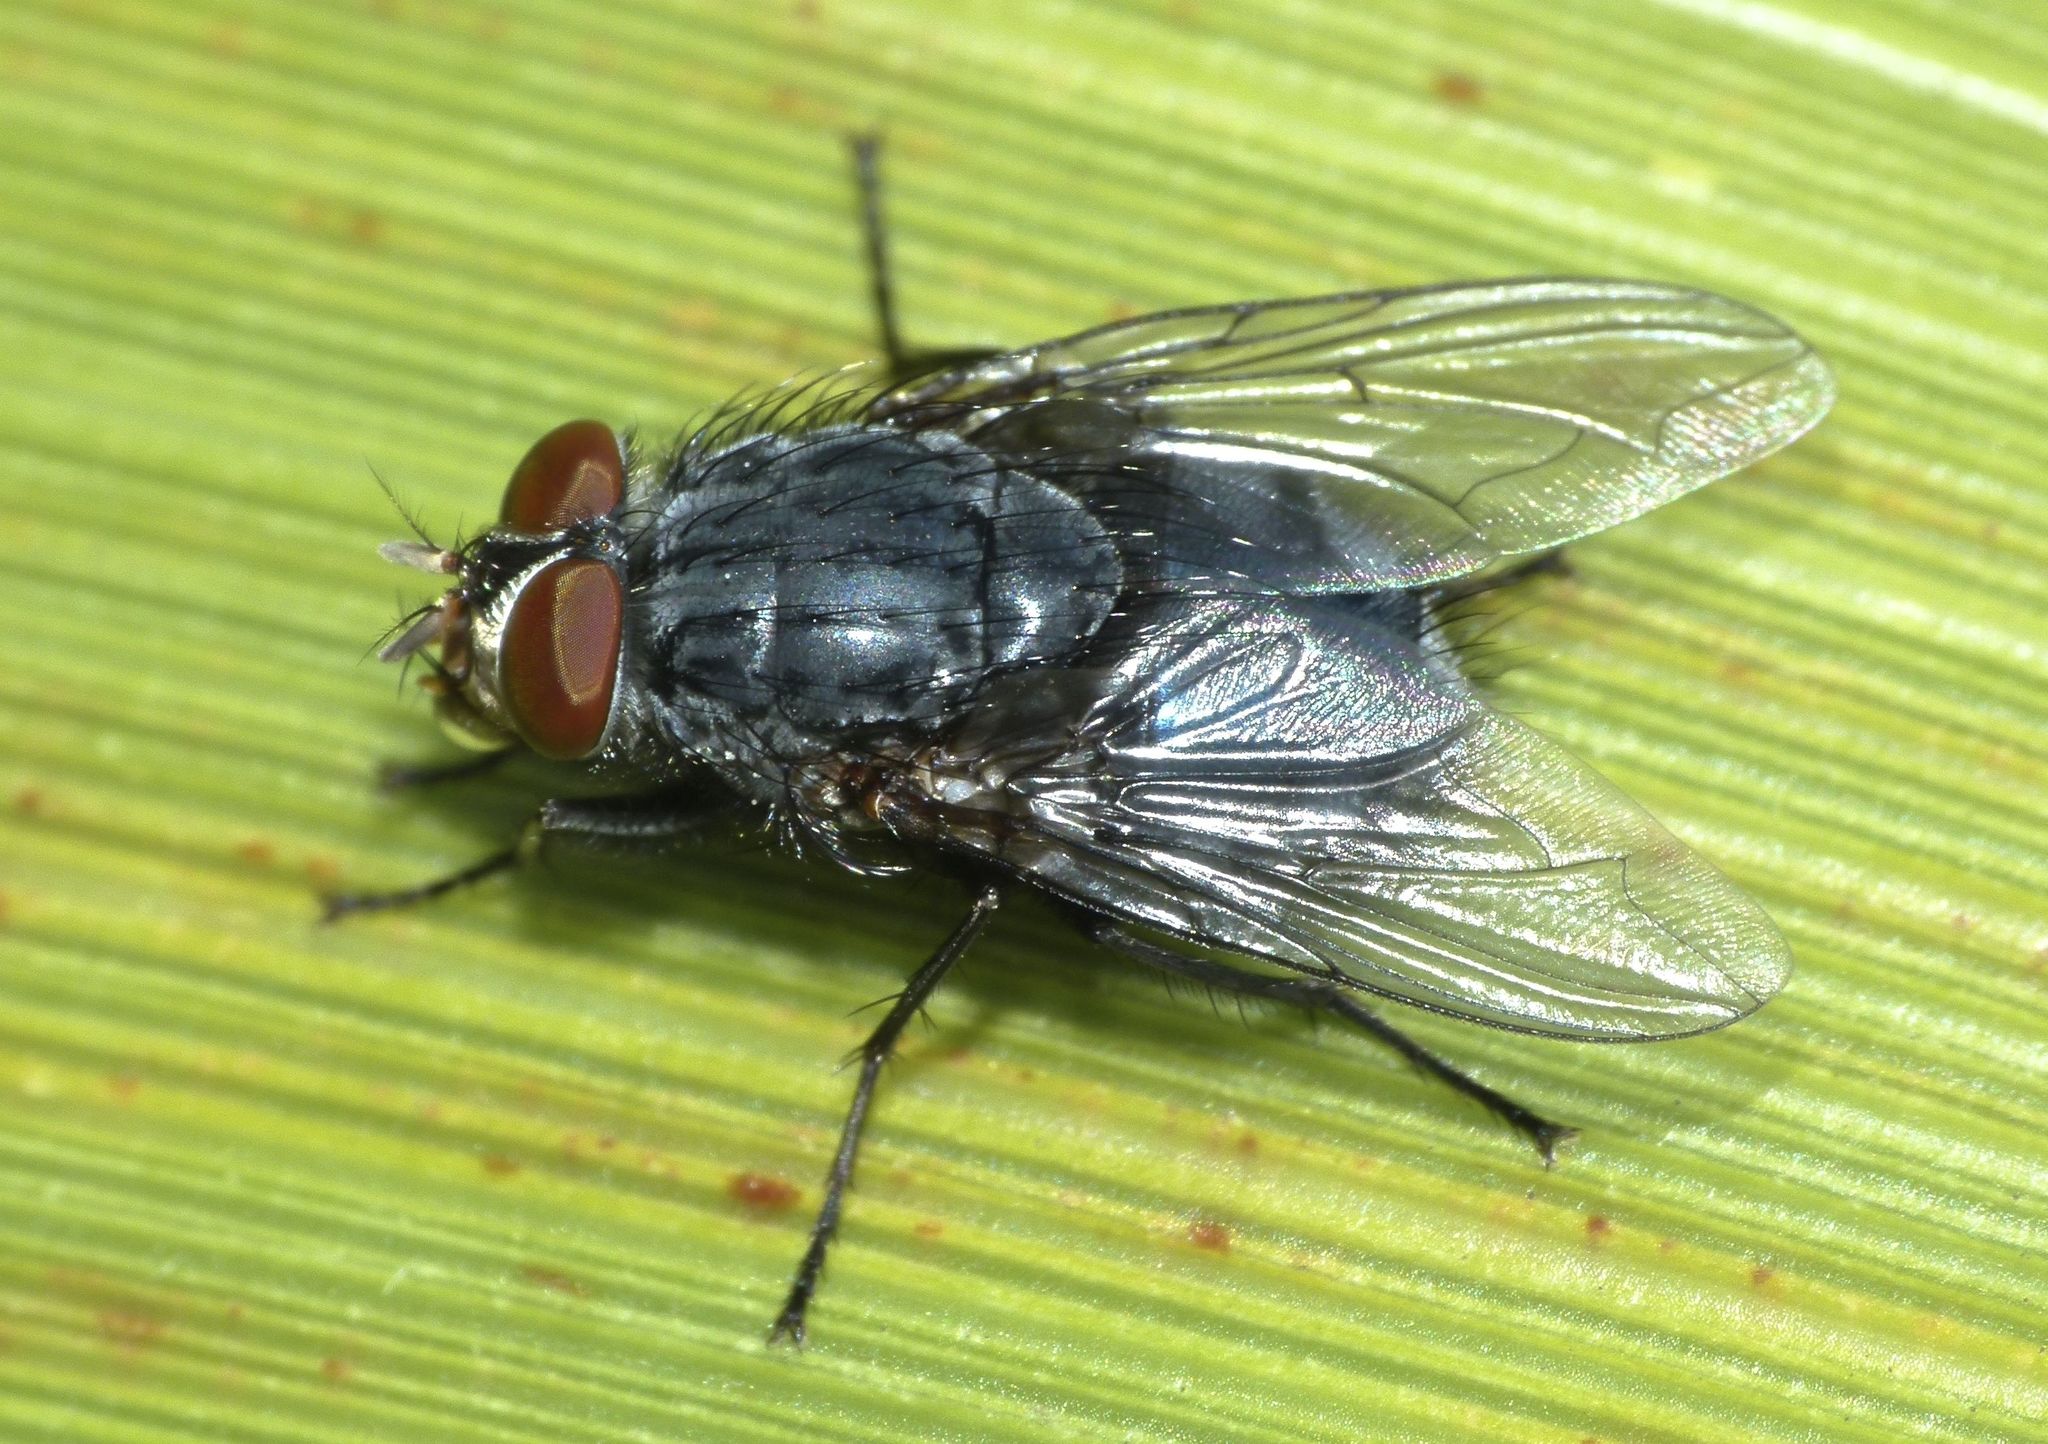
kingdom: Animalia
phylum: Arthropoda
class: Insecta
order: Diptera
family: Calliphoridae
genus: Calliphora
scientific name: Calliphora vicina
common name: Common blow flie
